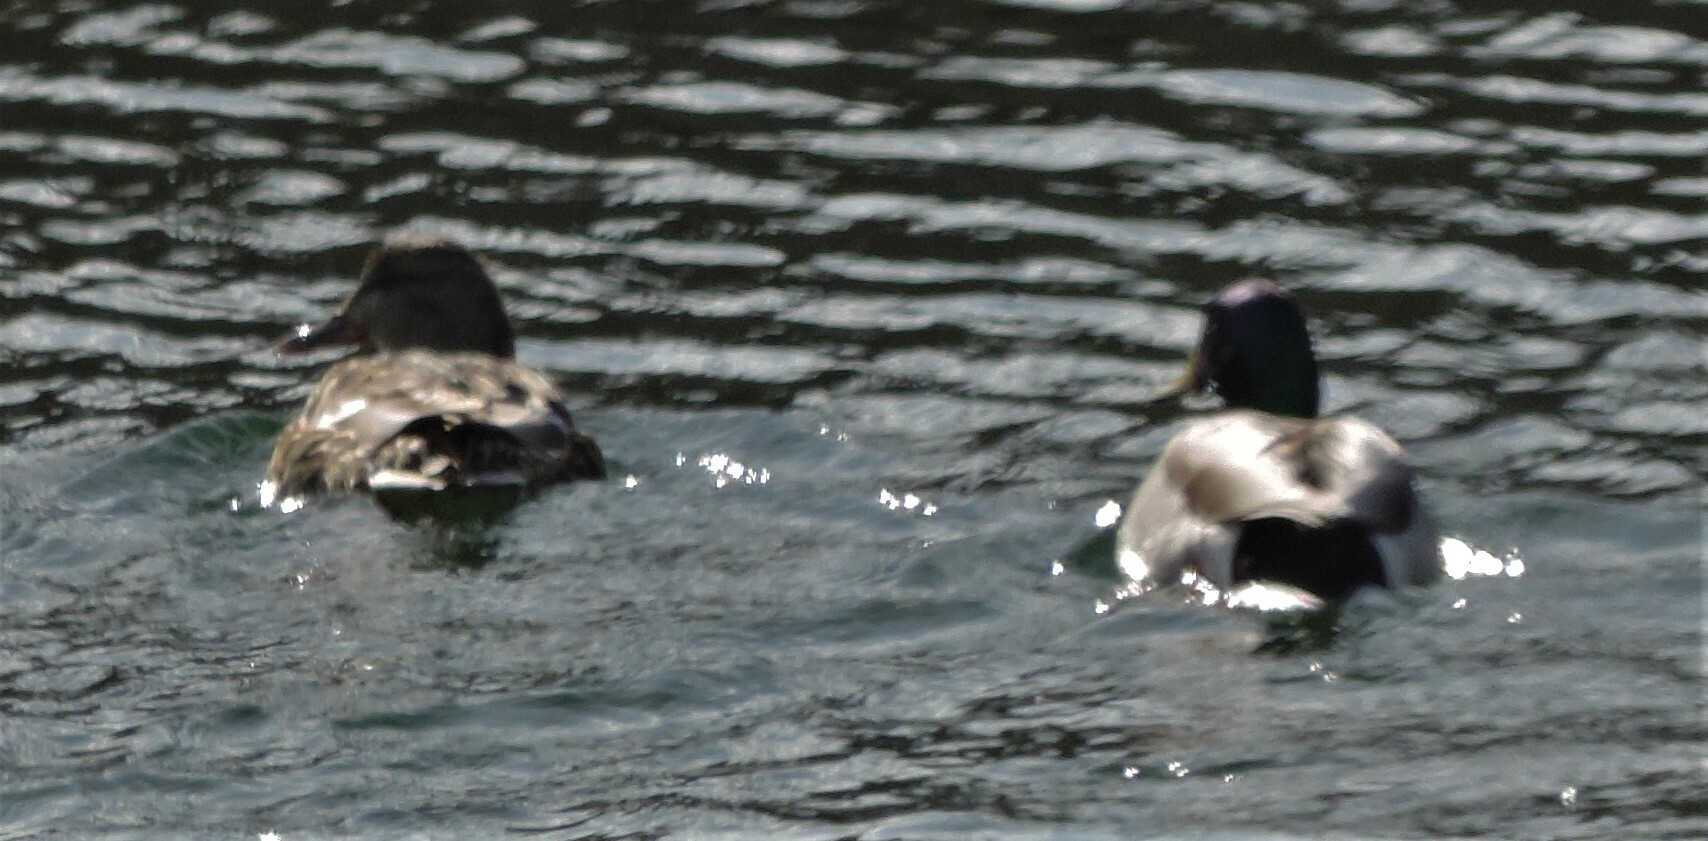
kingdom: Animalia
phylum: Chordata
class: Aves
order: Anseriformes
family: Anatidae
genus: Anas
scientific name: Anas platyrhynchos
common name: Mallard
